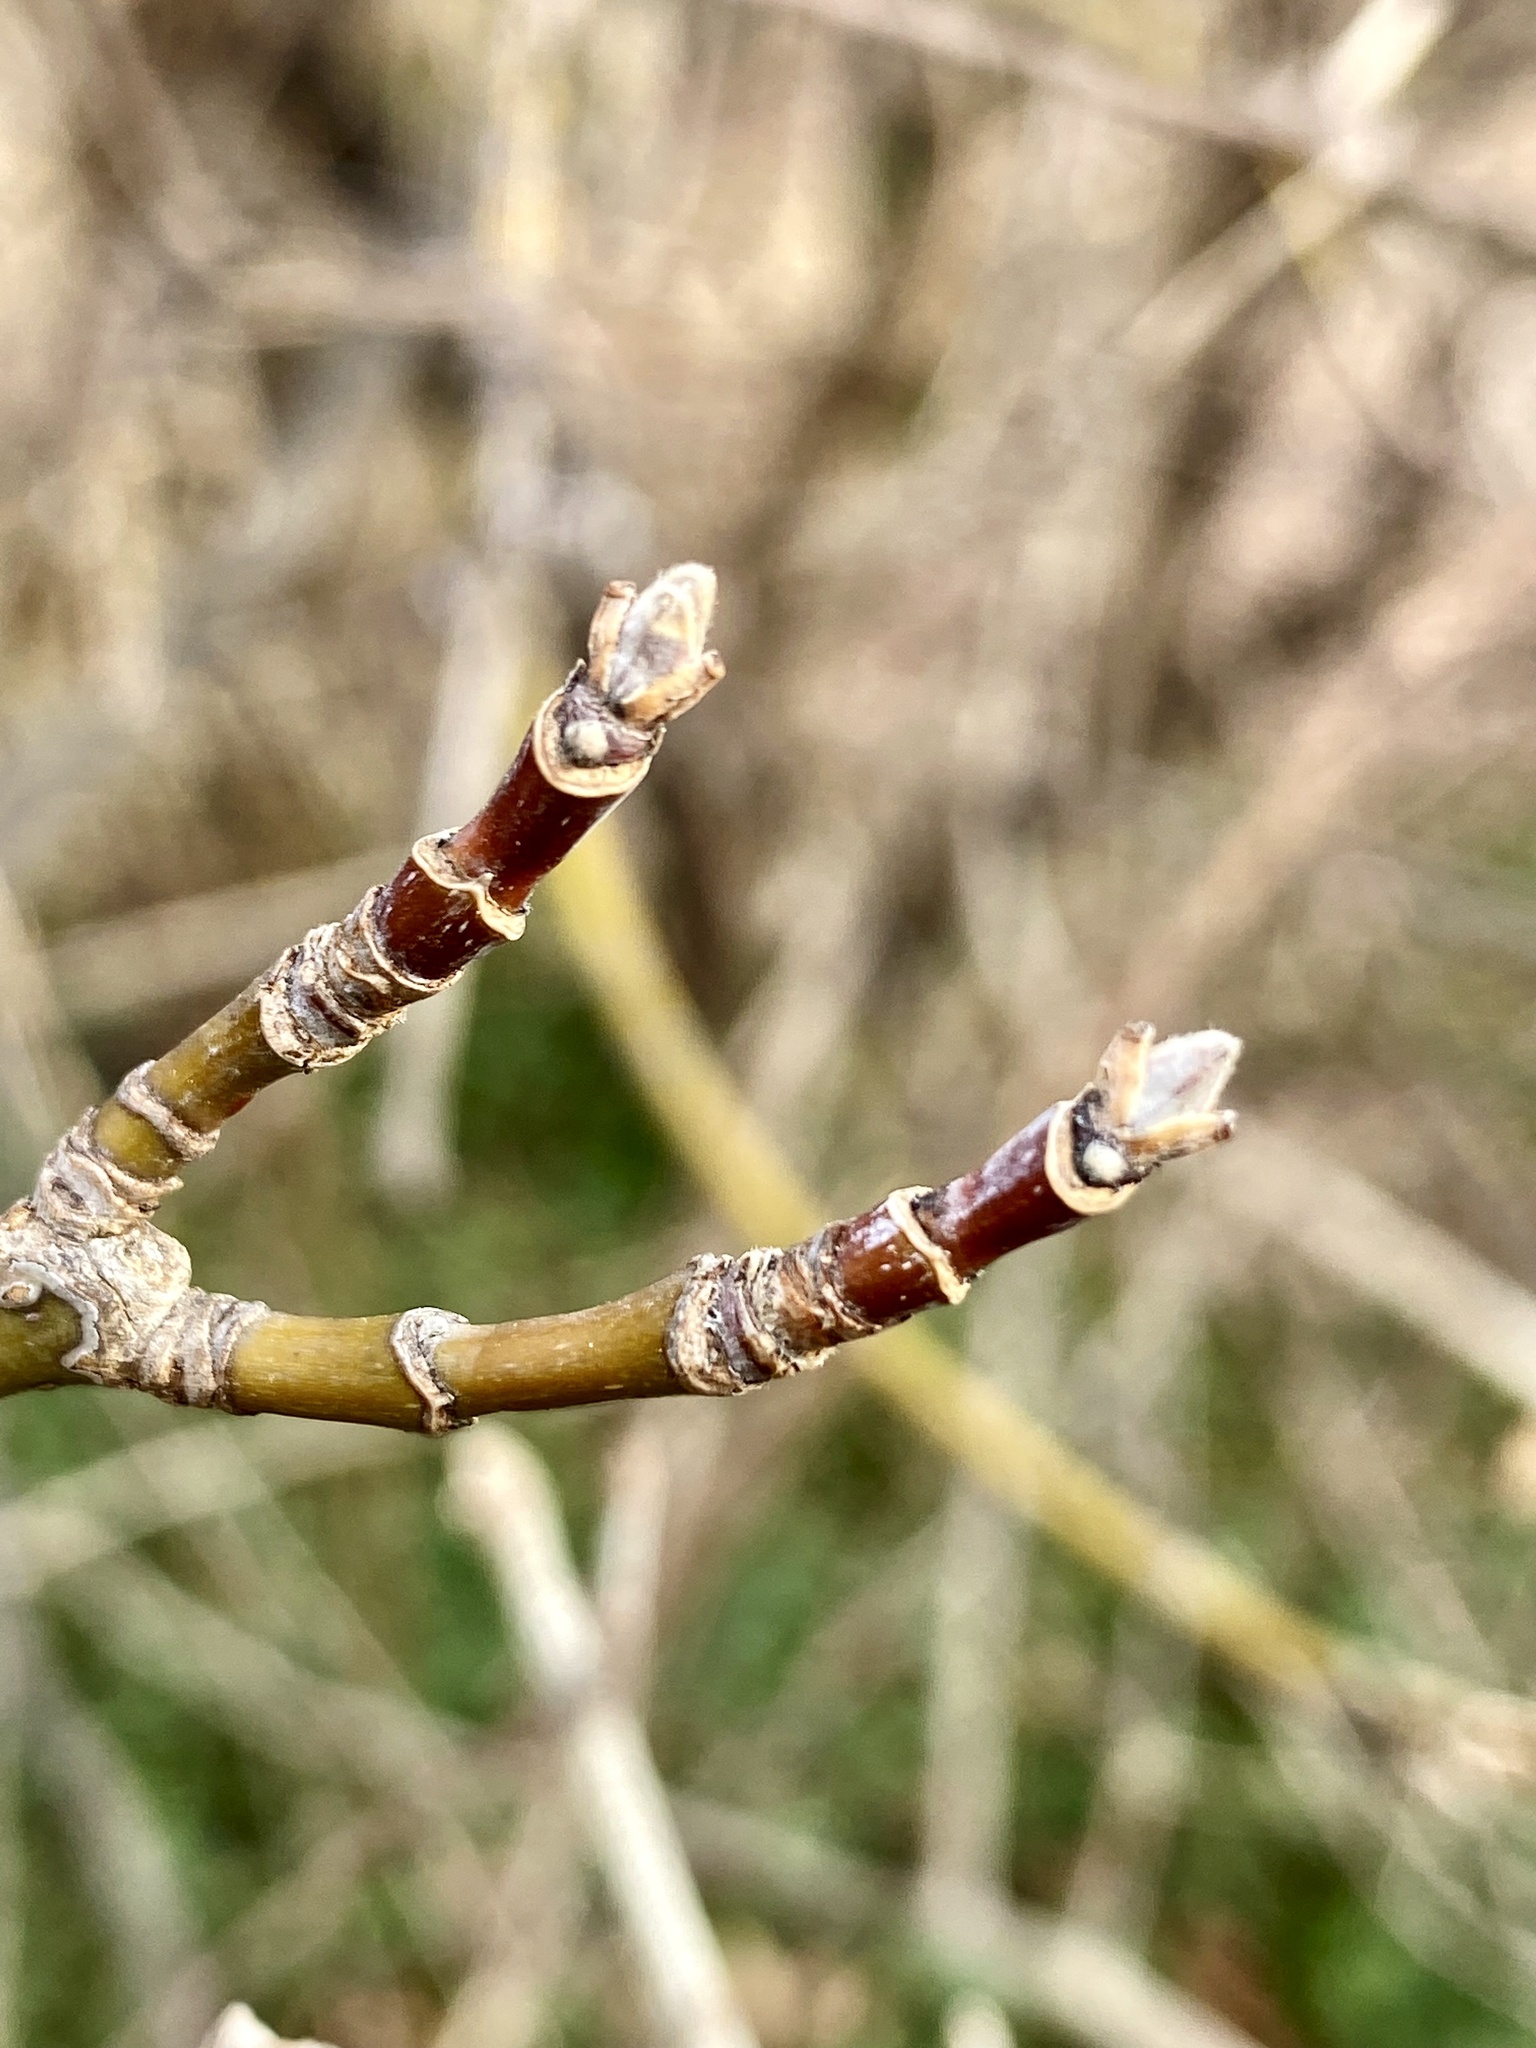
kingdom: Plantae
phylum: Tracheophyta
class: Magnoliopsida
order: Sapindales
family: Sapindaceae
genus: Acer
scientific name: Acer negundo
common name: Ashleaf maple
